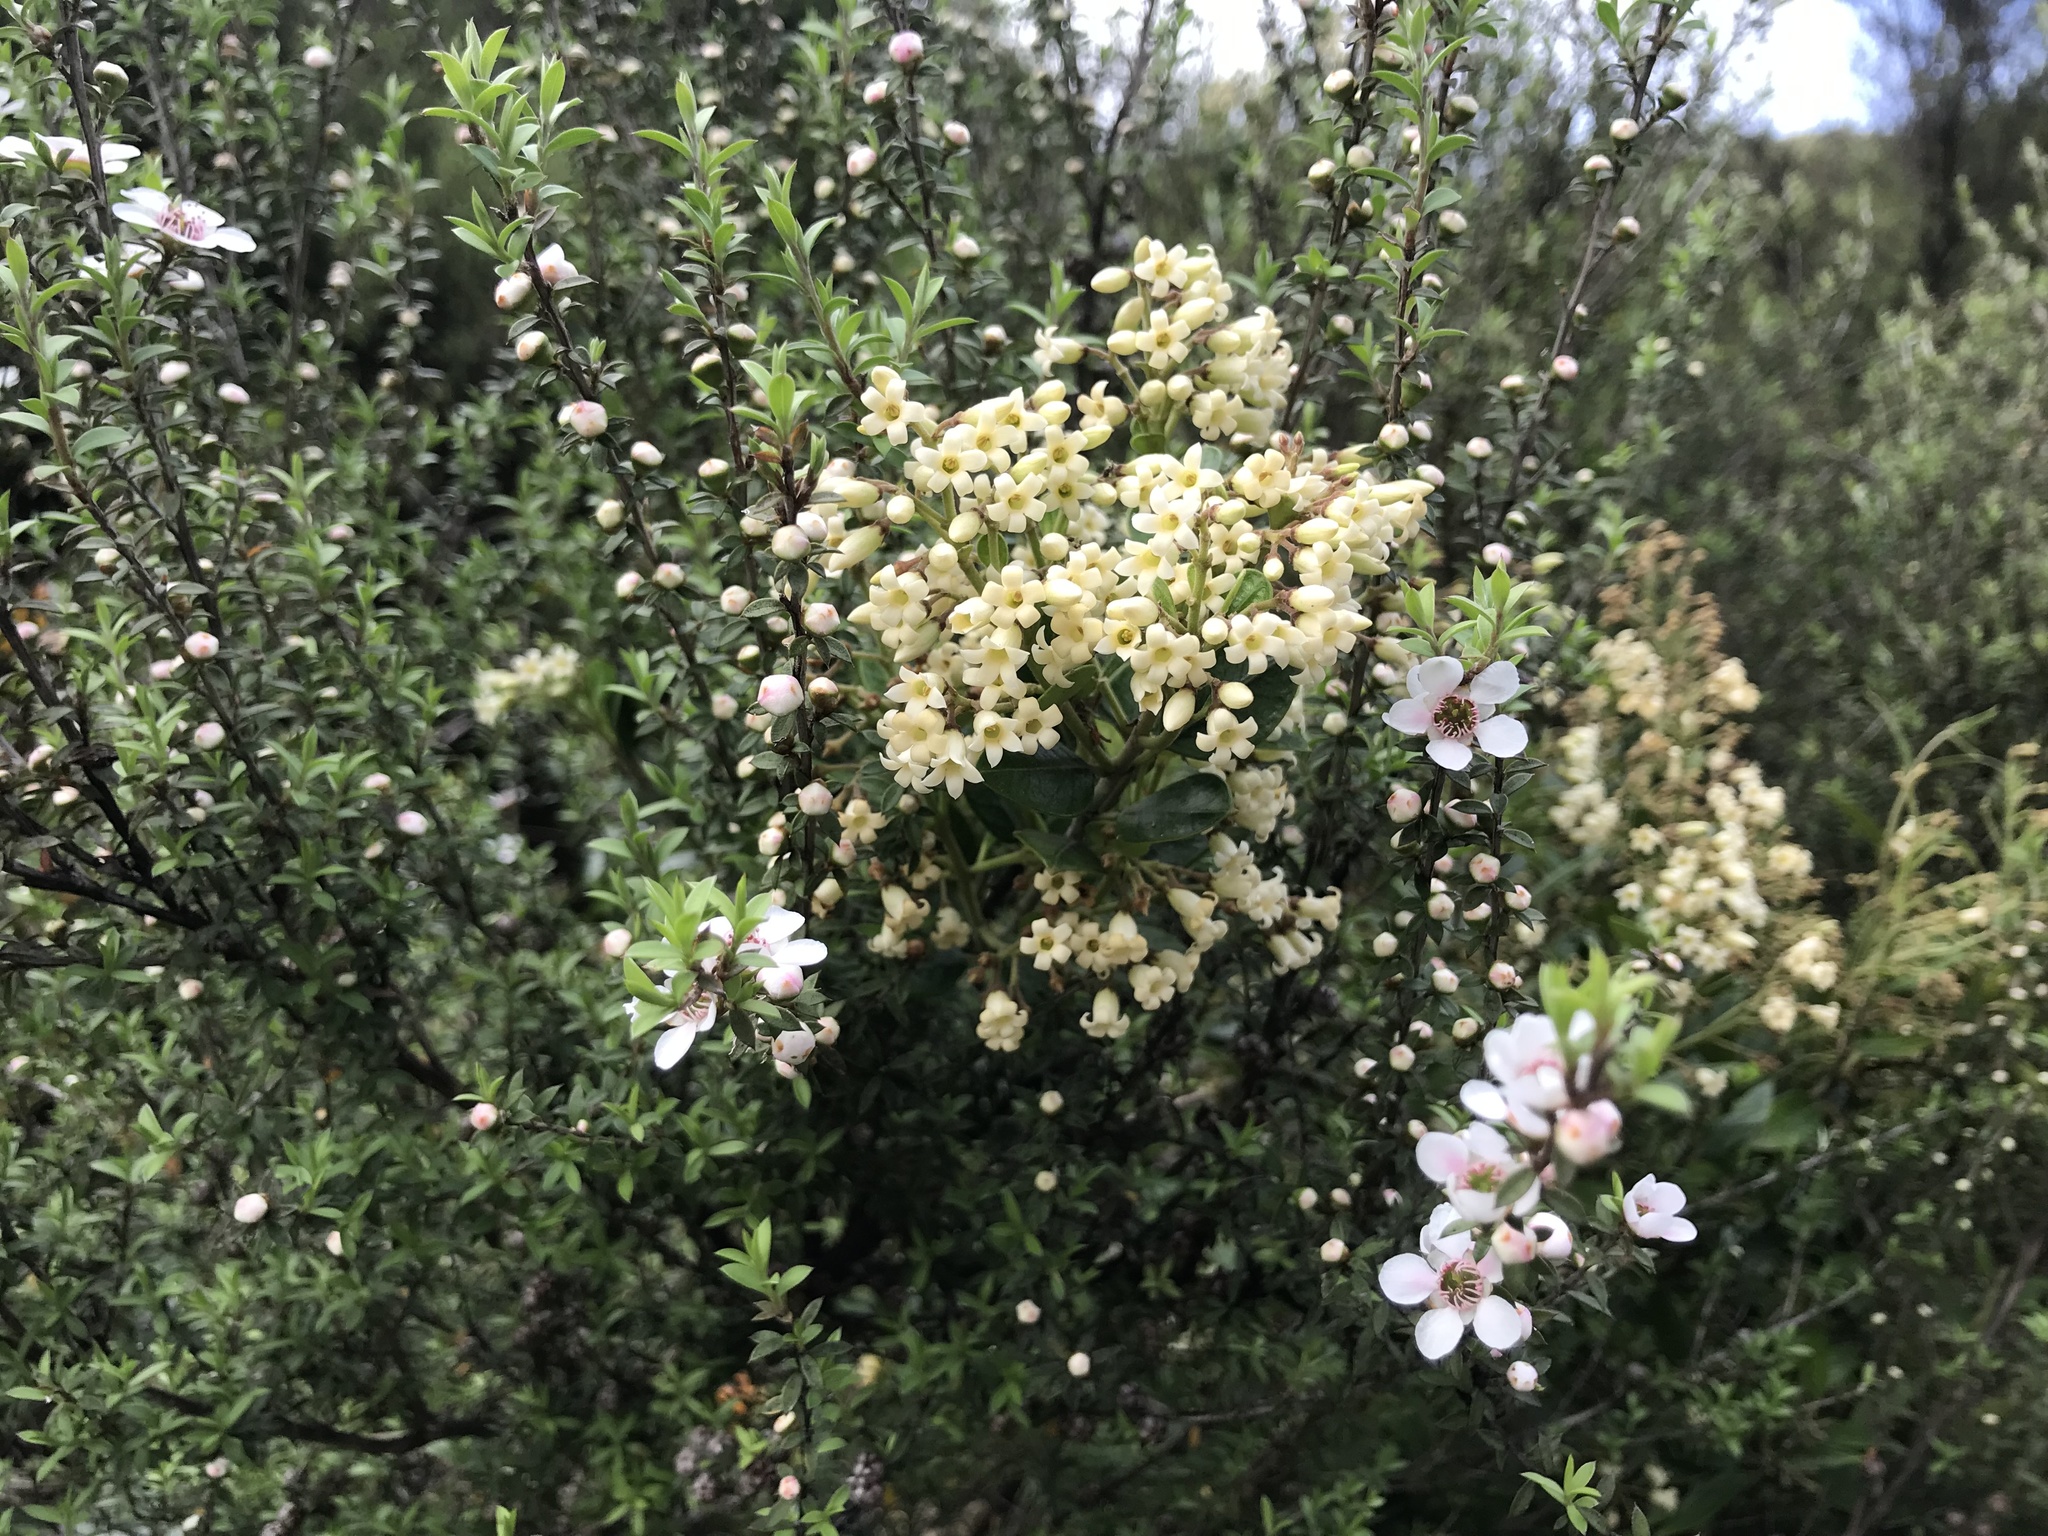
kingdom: Plantae
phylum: Tracheophyta
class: Magnoliopsida
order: Gentianales
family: Apocynaceae
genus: Parsonsia
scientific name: Parsonsia heterophylla
